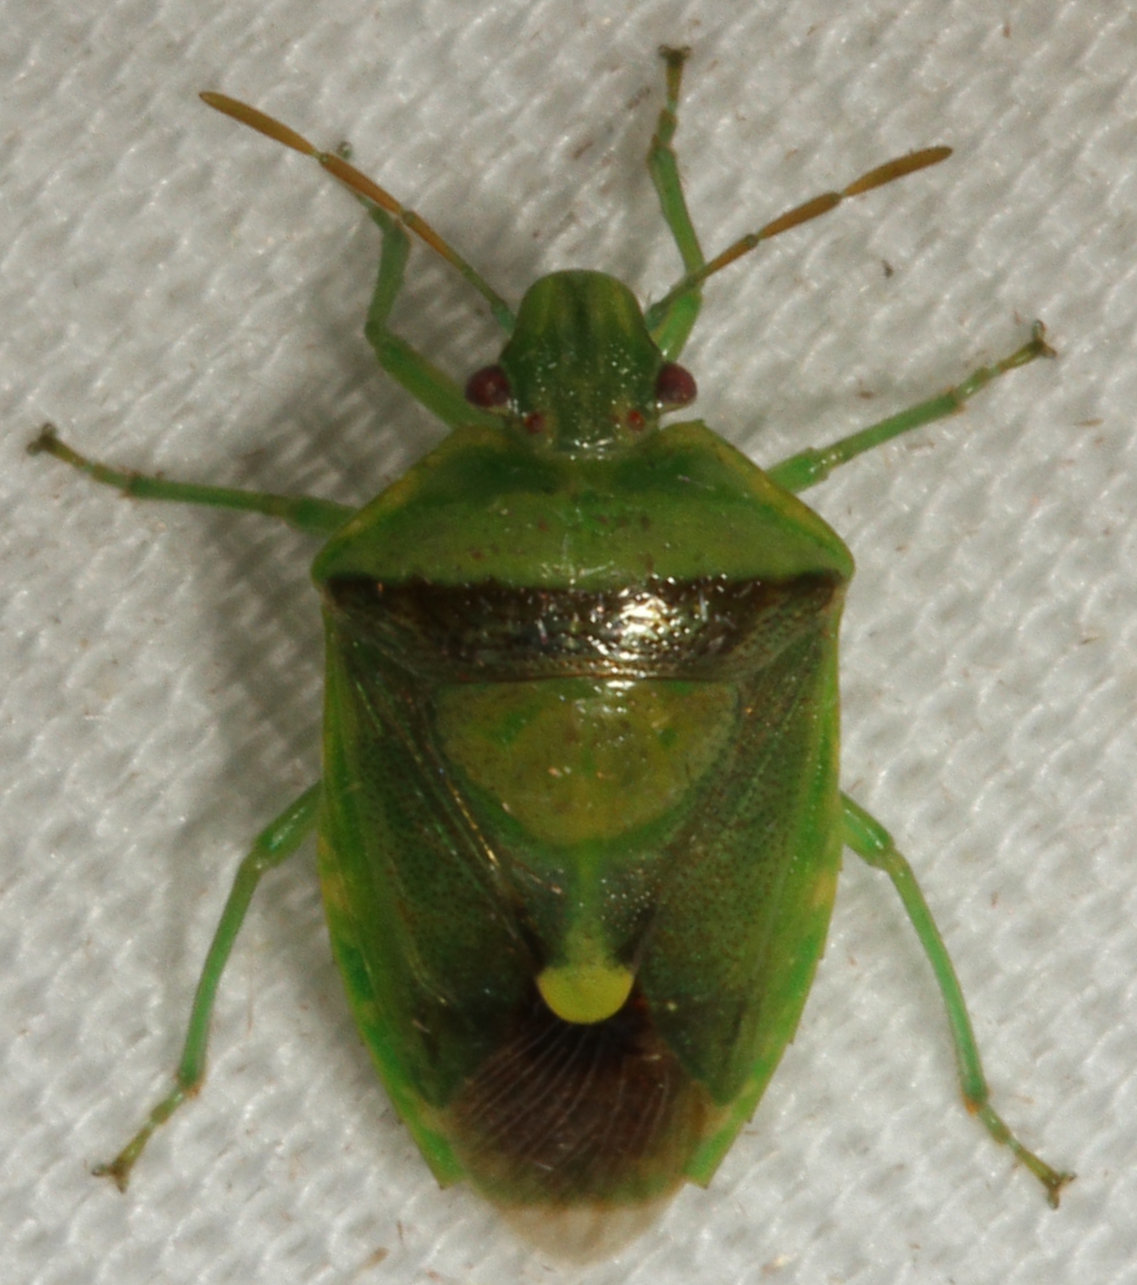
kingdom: Animalia
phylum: Arthropoda
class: Insecta
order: Hemiptera
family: Pentatomidae
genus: Banasa
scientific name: Banasa dimidiata
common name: Green burgundy stink bug
